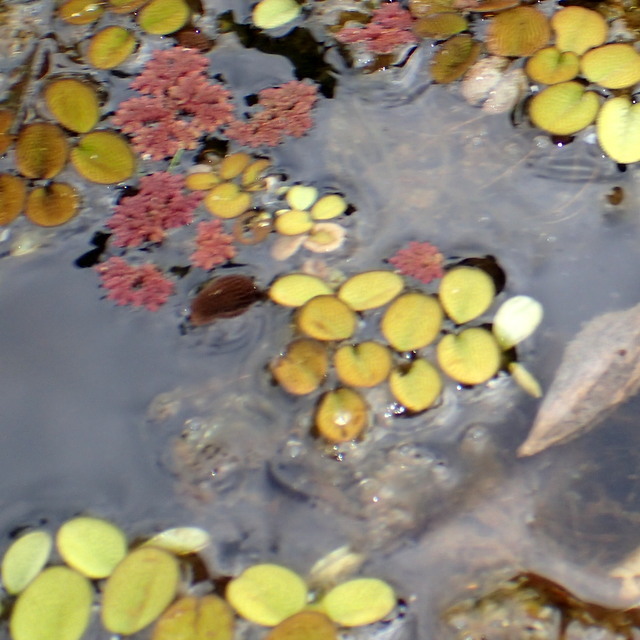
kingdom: Plantae
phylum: Tracheophyta
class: Polypodiopsida
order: Salviniales
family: Salviniaceae
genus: Salvinia
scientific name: Salvinia minima
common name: Water spangles
